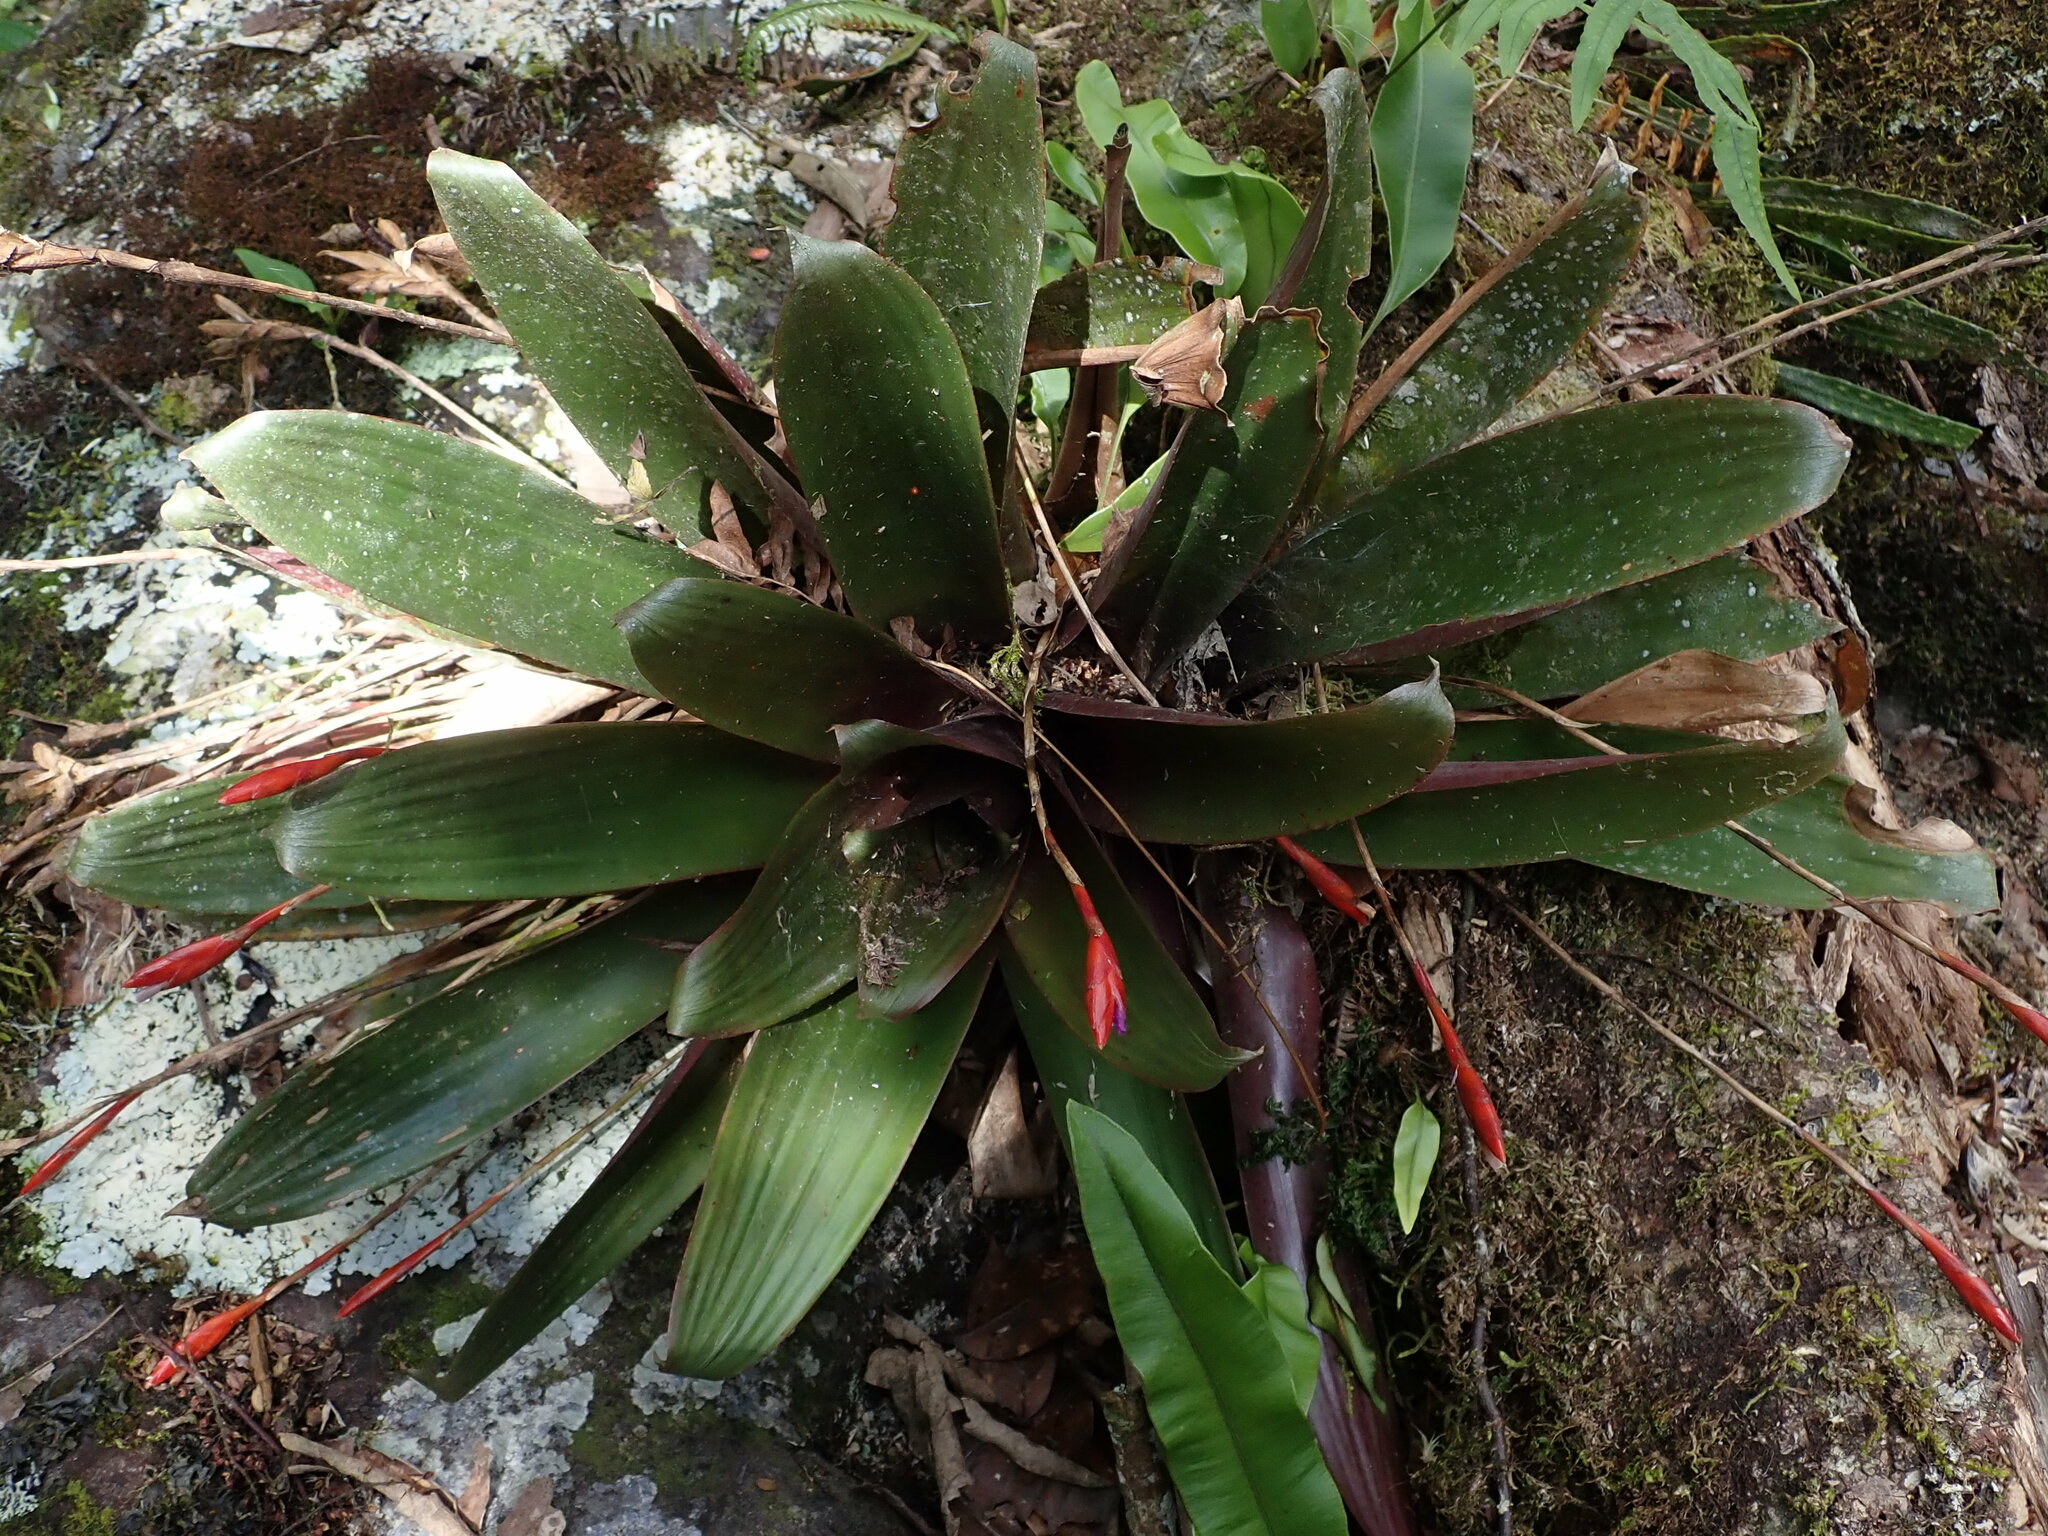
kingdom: Plantae
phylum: Tracheophyta
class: Liliopsida
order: Poales
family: Bromeliaceae
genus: Tillandsia
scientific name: Tillandsia complanata
